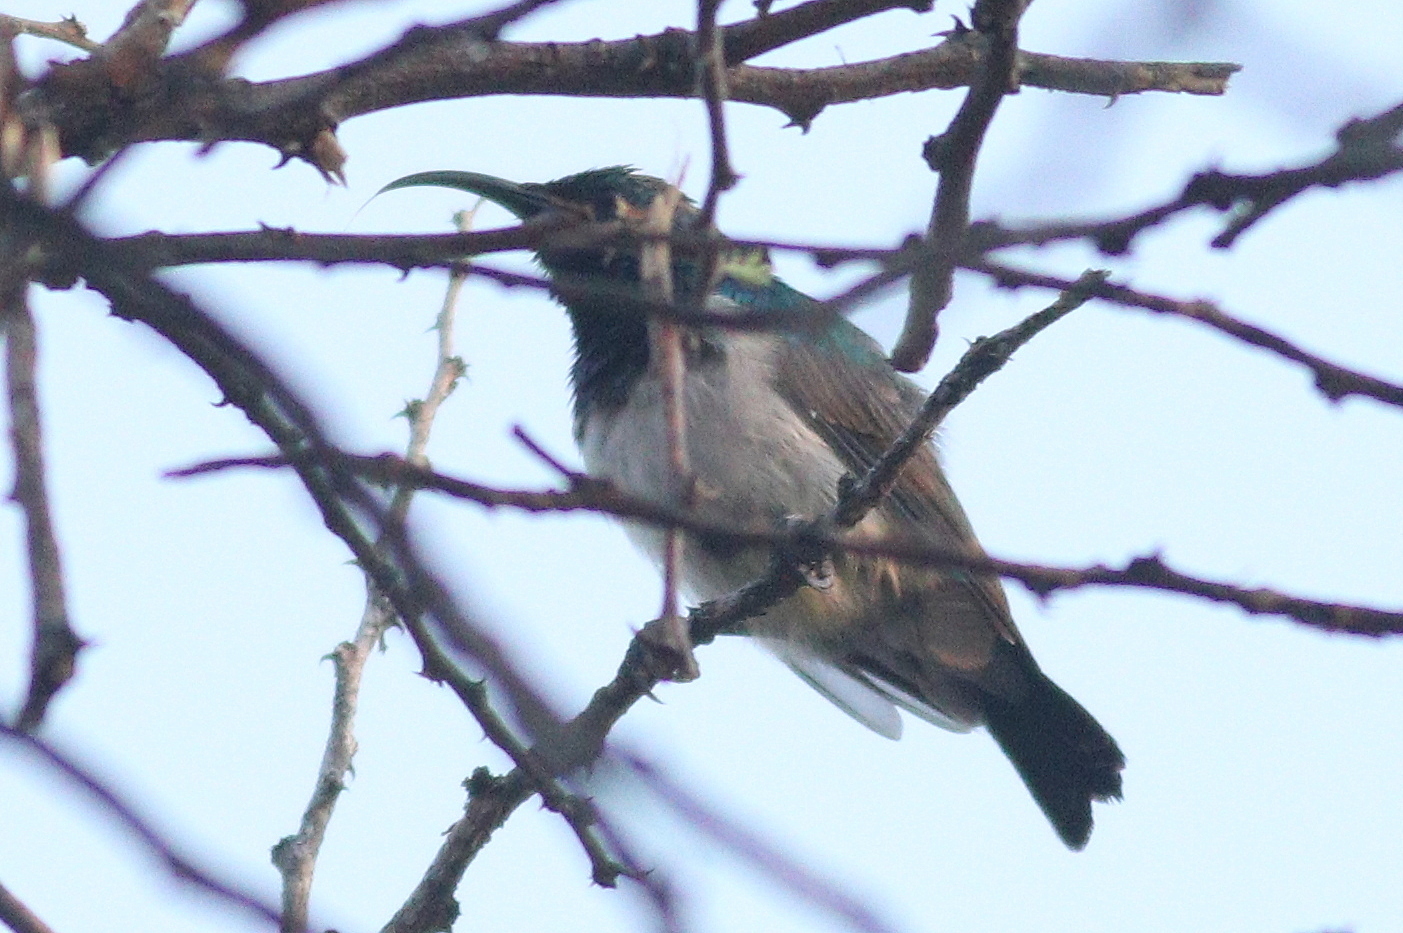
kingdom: Animalia
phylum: Chordata
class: Aves
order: Passeriformes
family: Nectariniidae
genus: Cinnyris
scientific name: Cinnyris talatala
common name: White-bellied sunbird
